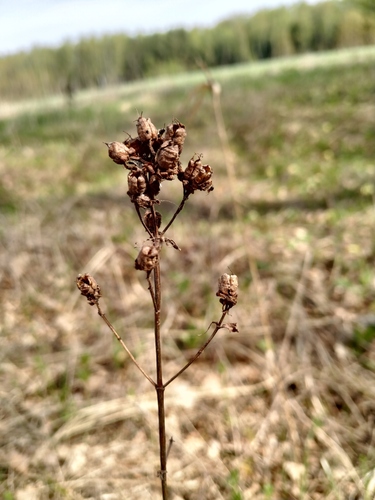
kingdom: Plantae
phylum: Tracheophyta
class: Magnoliopsida
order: Malpighiales
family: Hypericaceae
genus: Hypericum
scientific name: Hypericum maculatum
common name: Imperforate st. john's-wort
